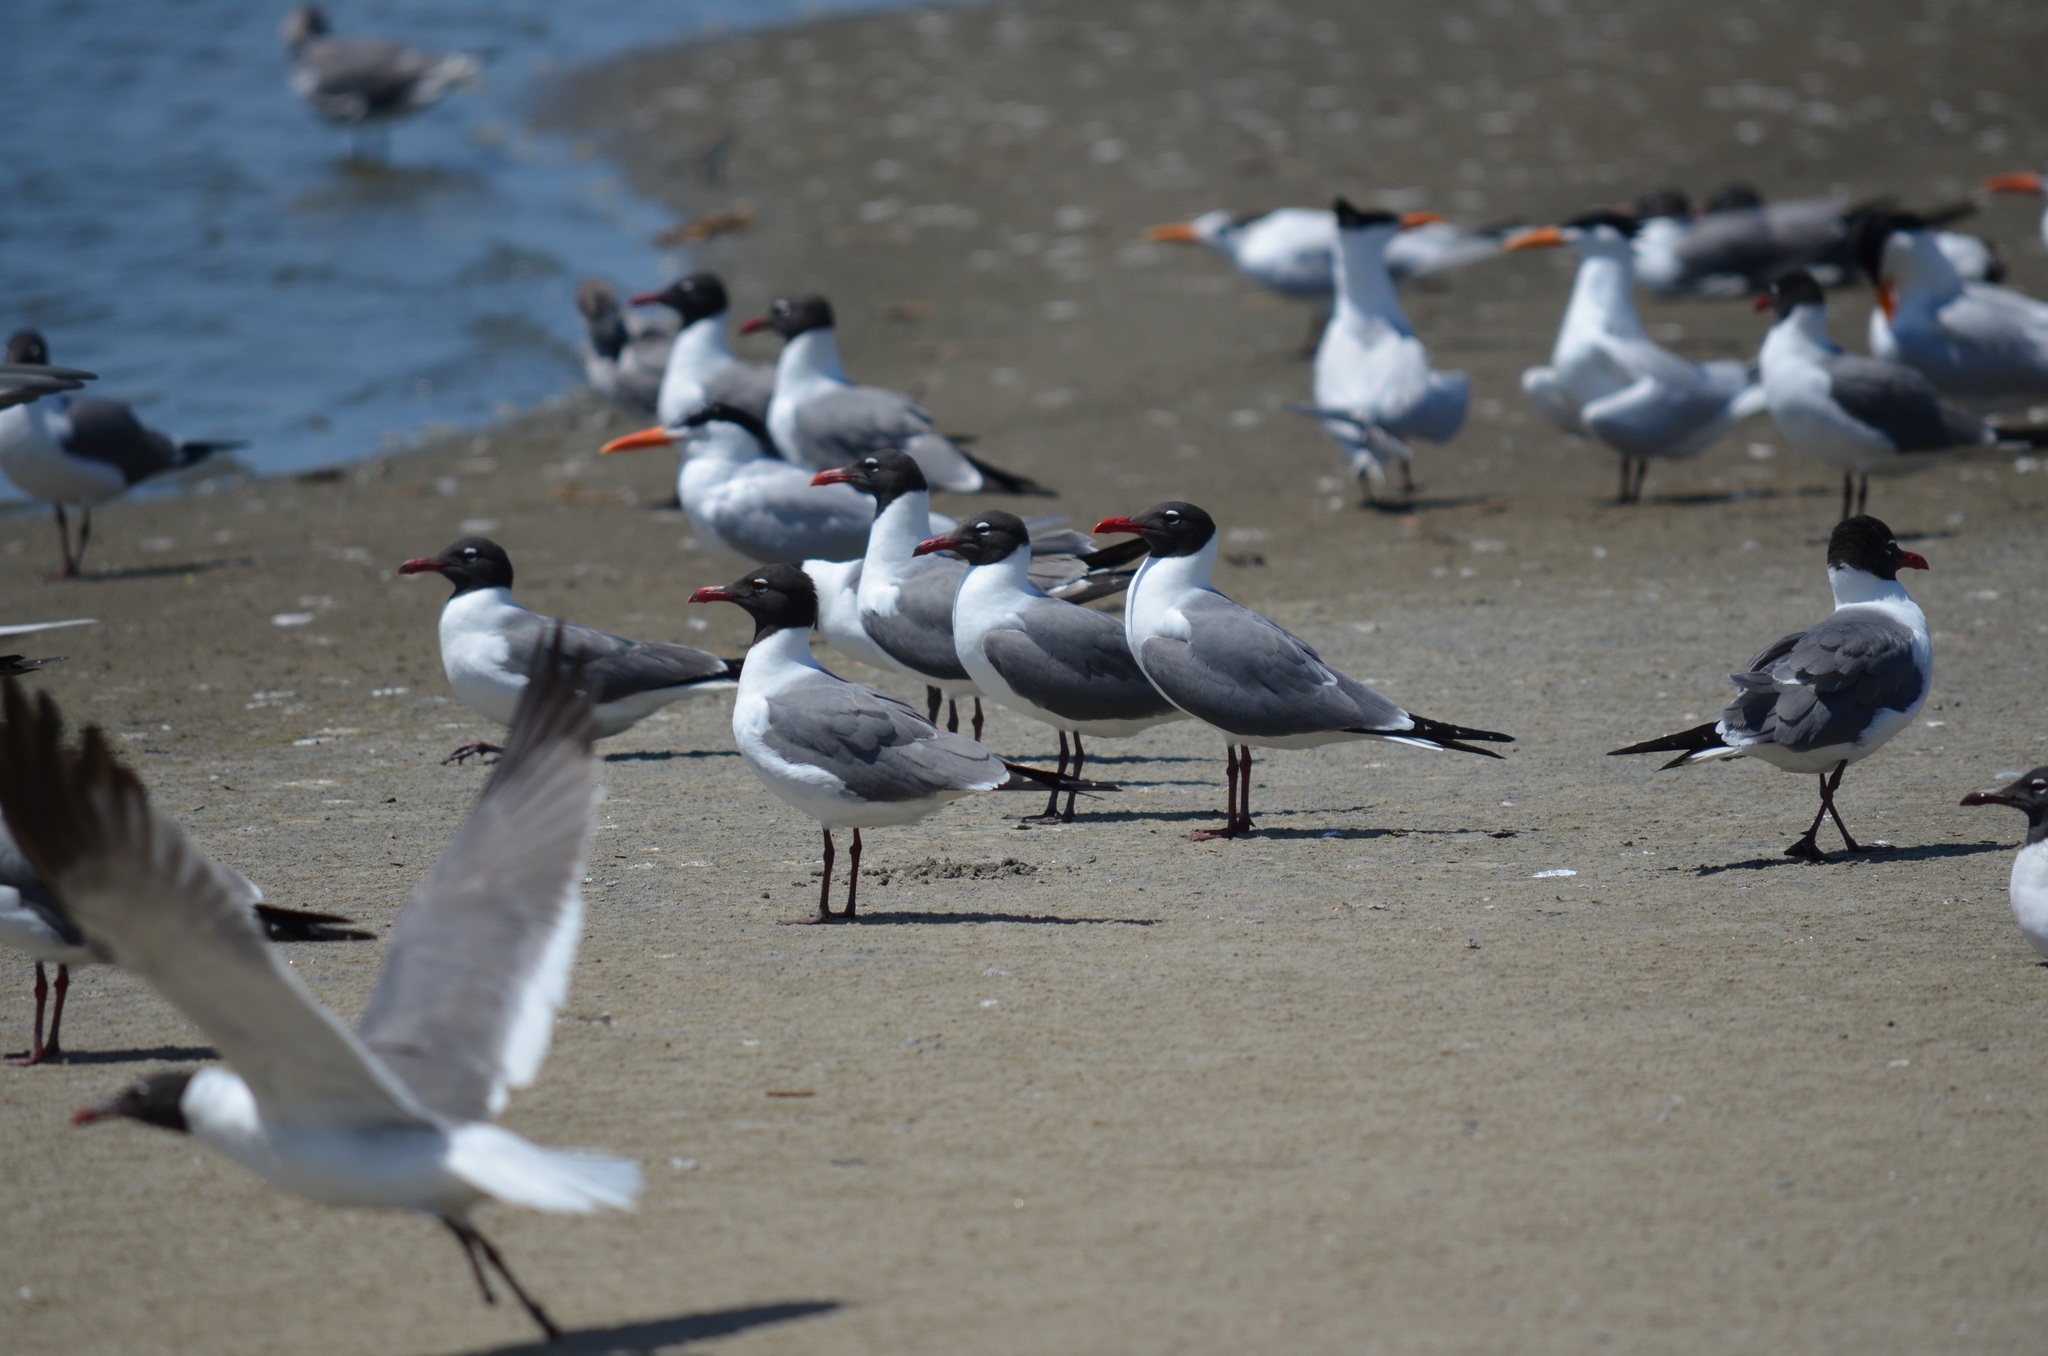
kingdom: Animalia
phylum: Chordata
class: Aves
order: Charadriiformes
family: Laridae
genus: Leucophaeus
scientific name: Leucophaeus atricilla
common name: Laughing gull
